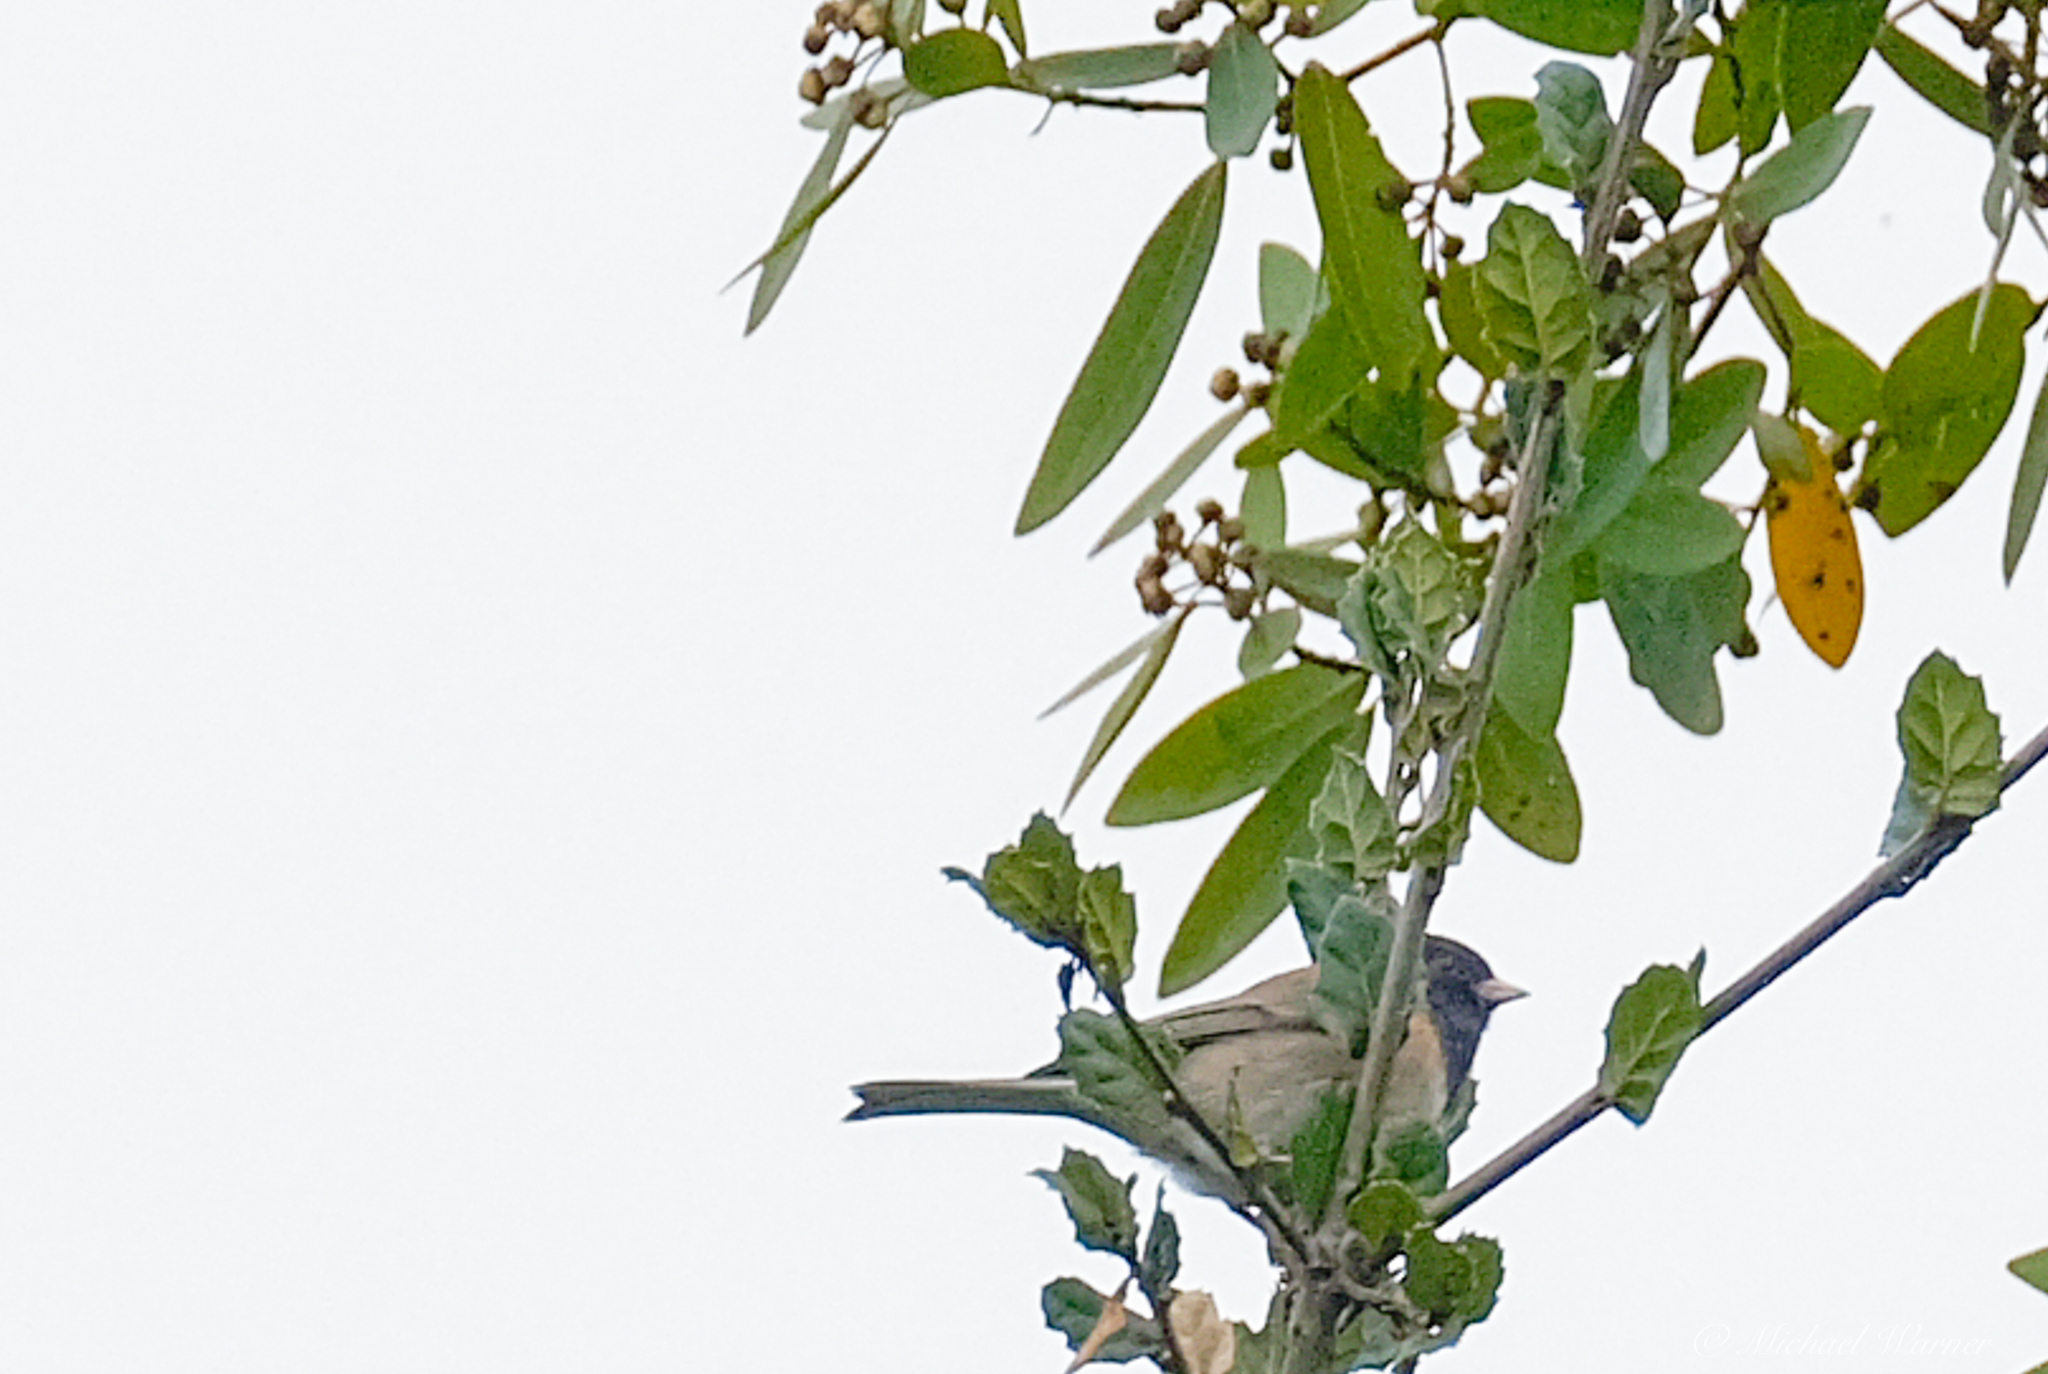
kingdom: Animalia
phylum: Chordata
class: Aves
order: Passeriformes
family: Passerellidae
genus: Junco
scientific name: Junco hyemalis
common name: Dark-eyed junco
